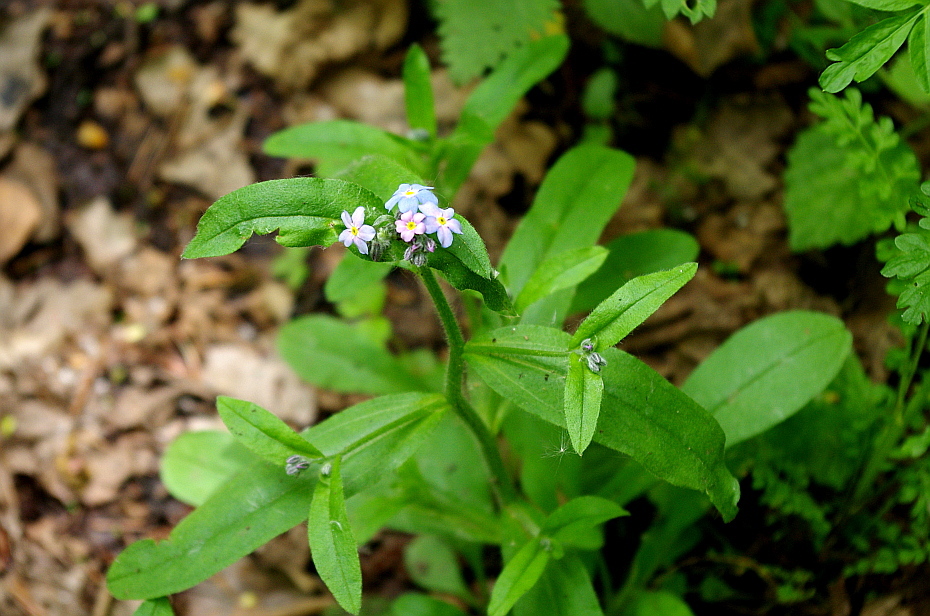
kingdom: Plantae
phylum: Tracheophyta
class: Magnoliopsida
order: Boraginales
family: Boraginaceae
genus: Myosotis
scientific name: Myosotis sylvatica
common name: Wood forget-me-not
